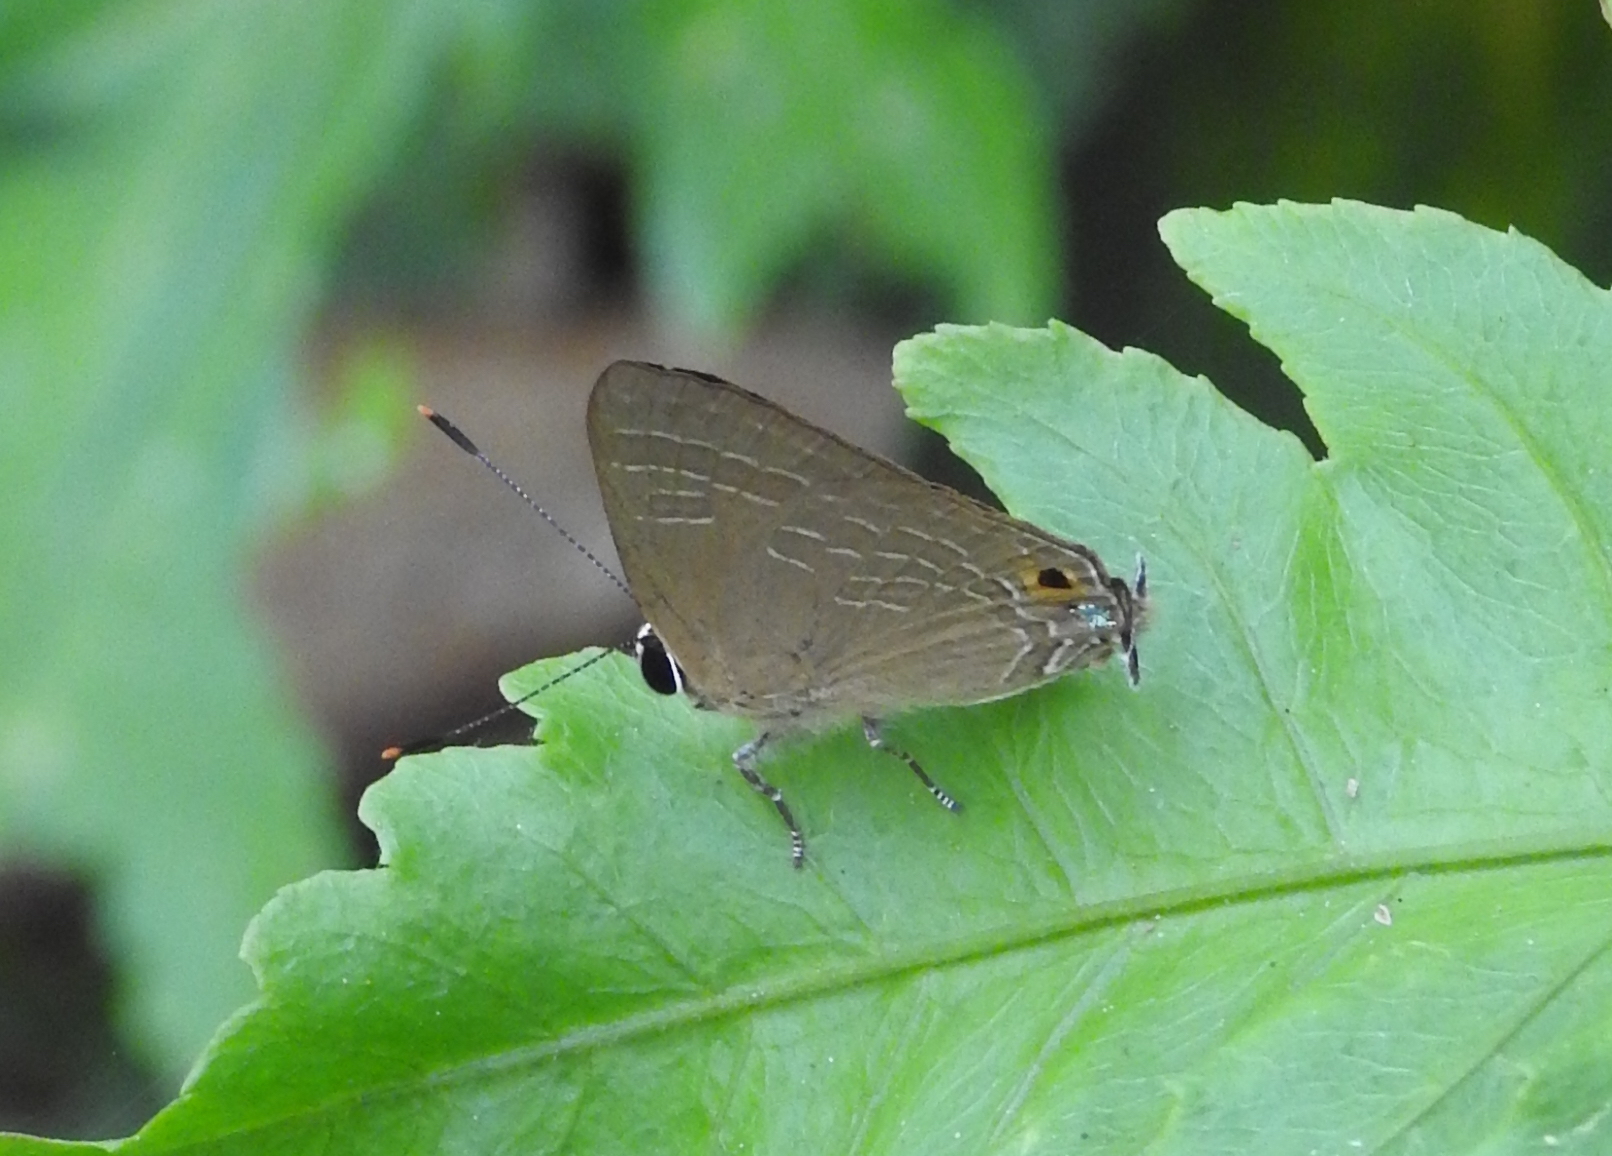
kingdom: Animalia
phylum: Arthropoda
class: Insecta
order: Lepidoptera
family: Lycaenidae
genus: Deudorix
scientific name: Deudorix epijarbas
